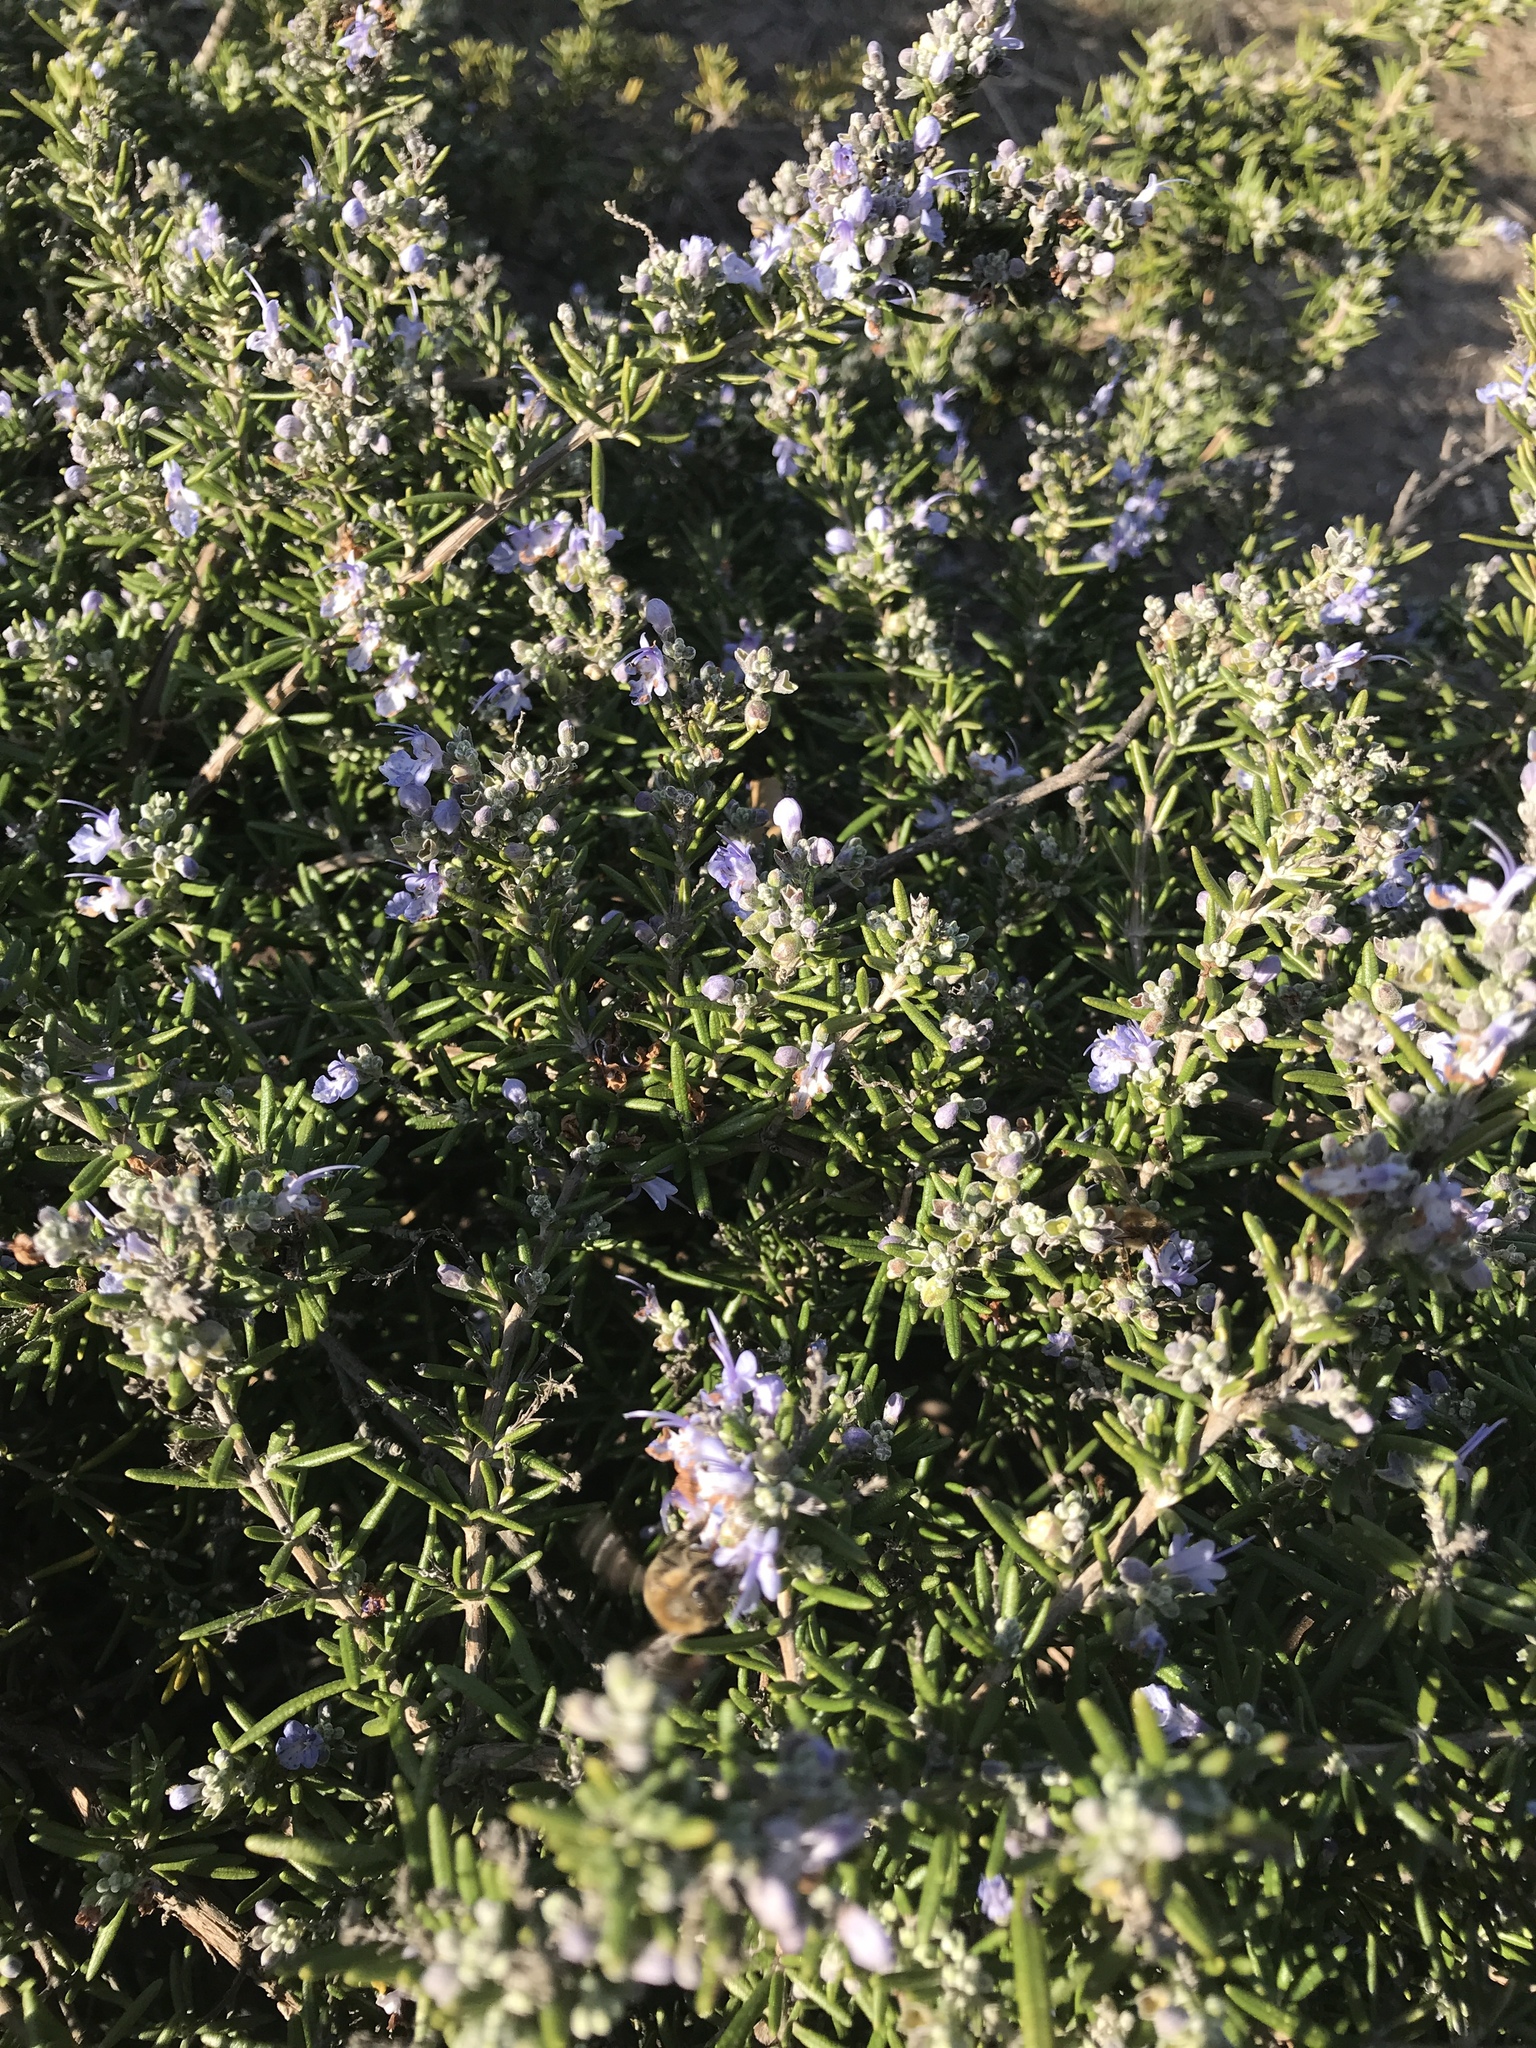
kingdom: Animalia
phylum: Arthropoda
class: Insecta
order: Hymenoptera
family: Apidae
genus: Apis
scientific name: Apis mellifera
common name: Honey bee
